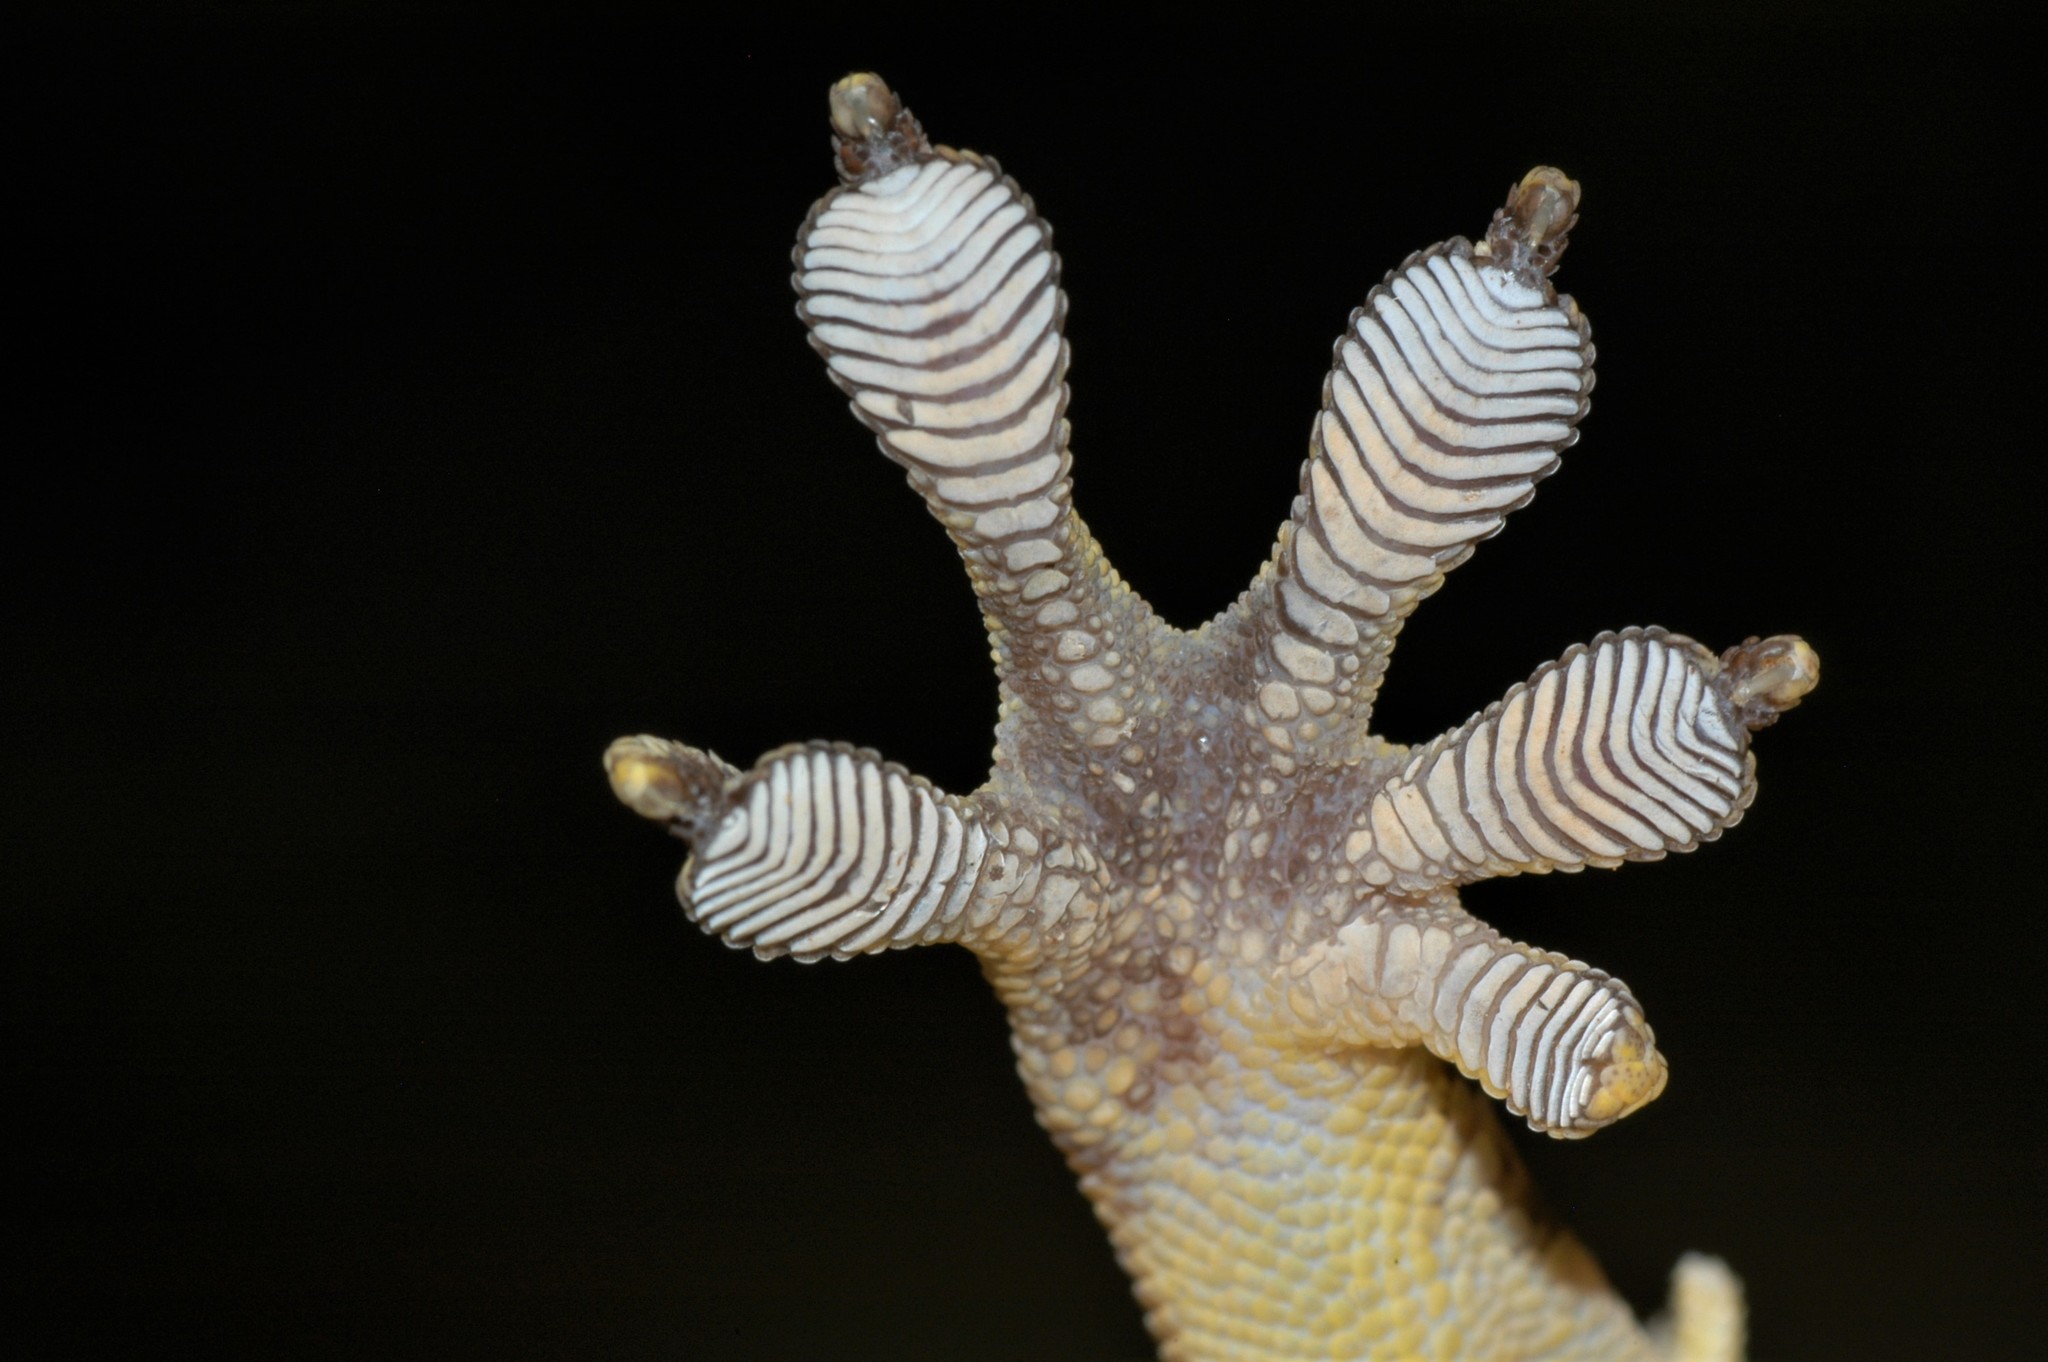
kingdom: Animalia
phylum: Chordata
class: Squamata
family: Gekkonidae
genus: Blaesodactylus
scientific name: Blaesodactylus sakalava
